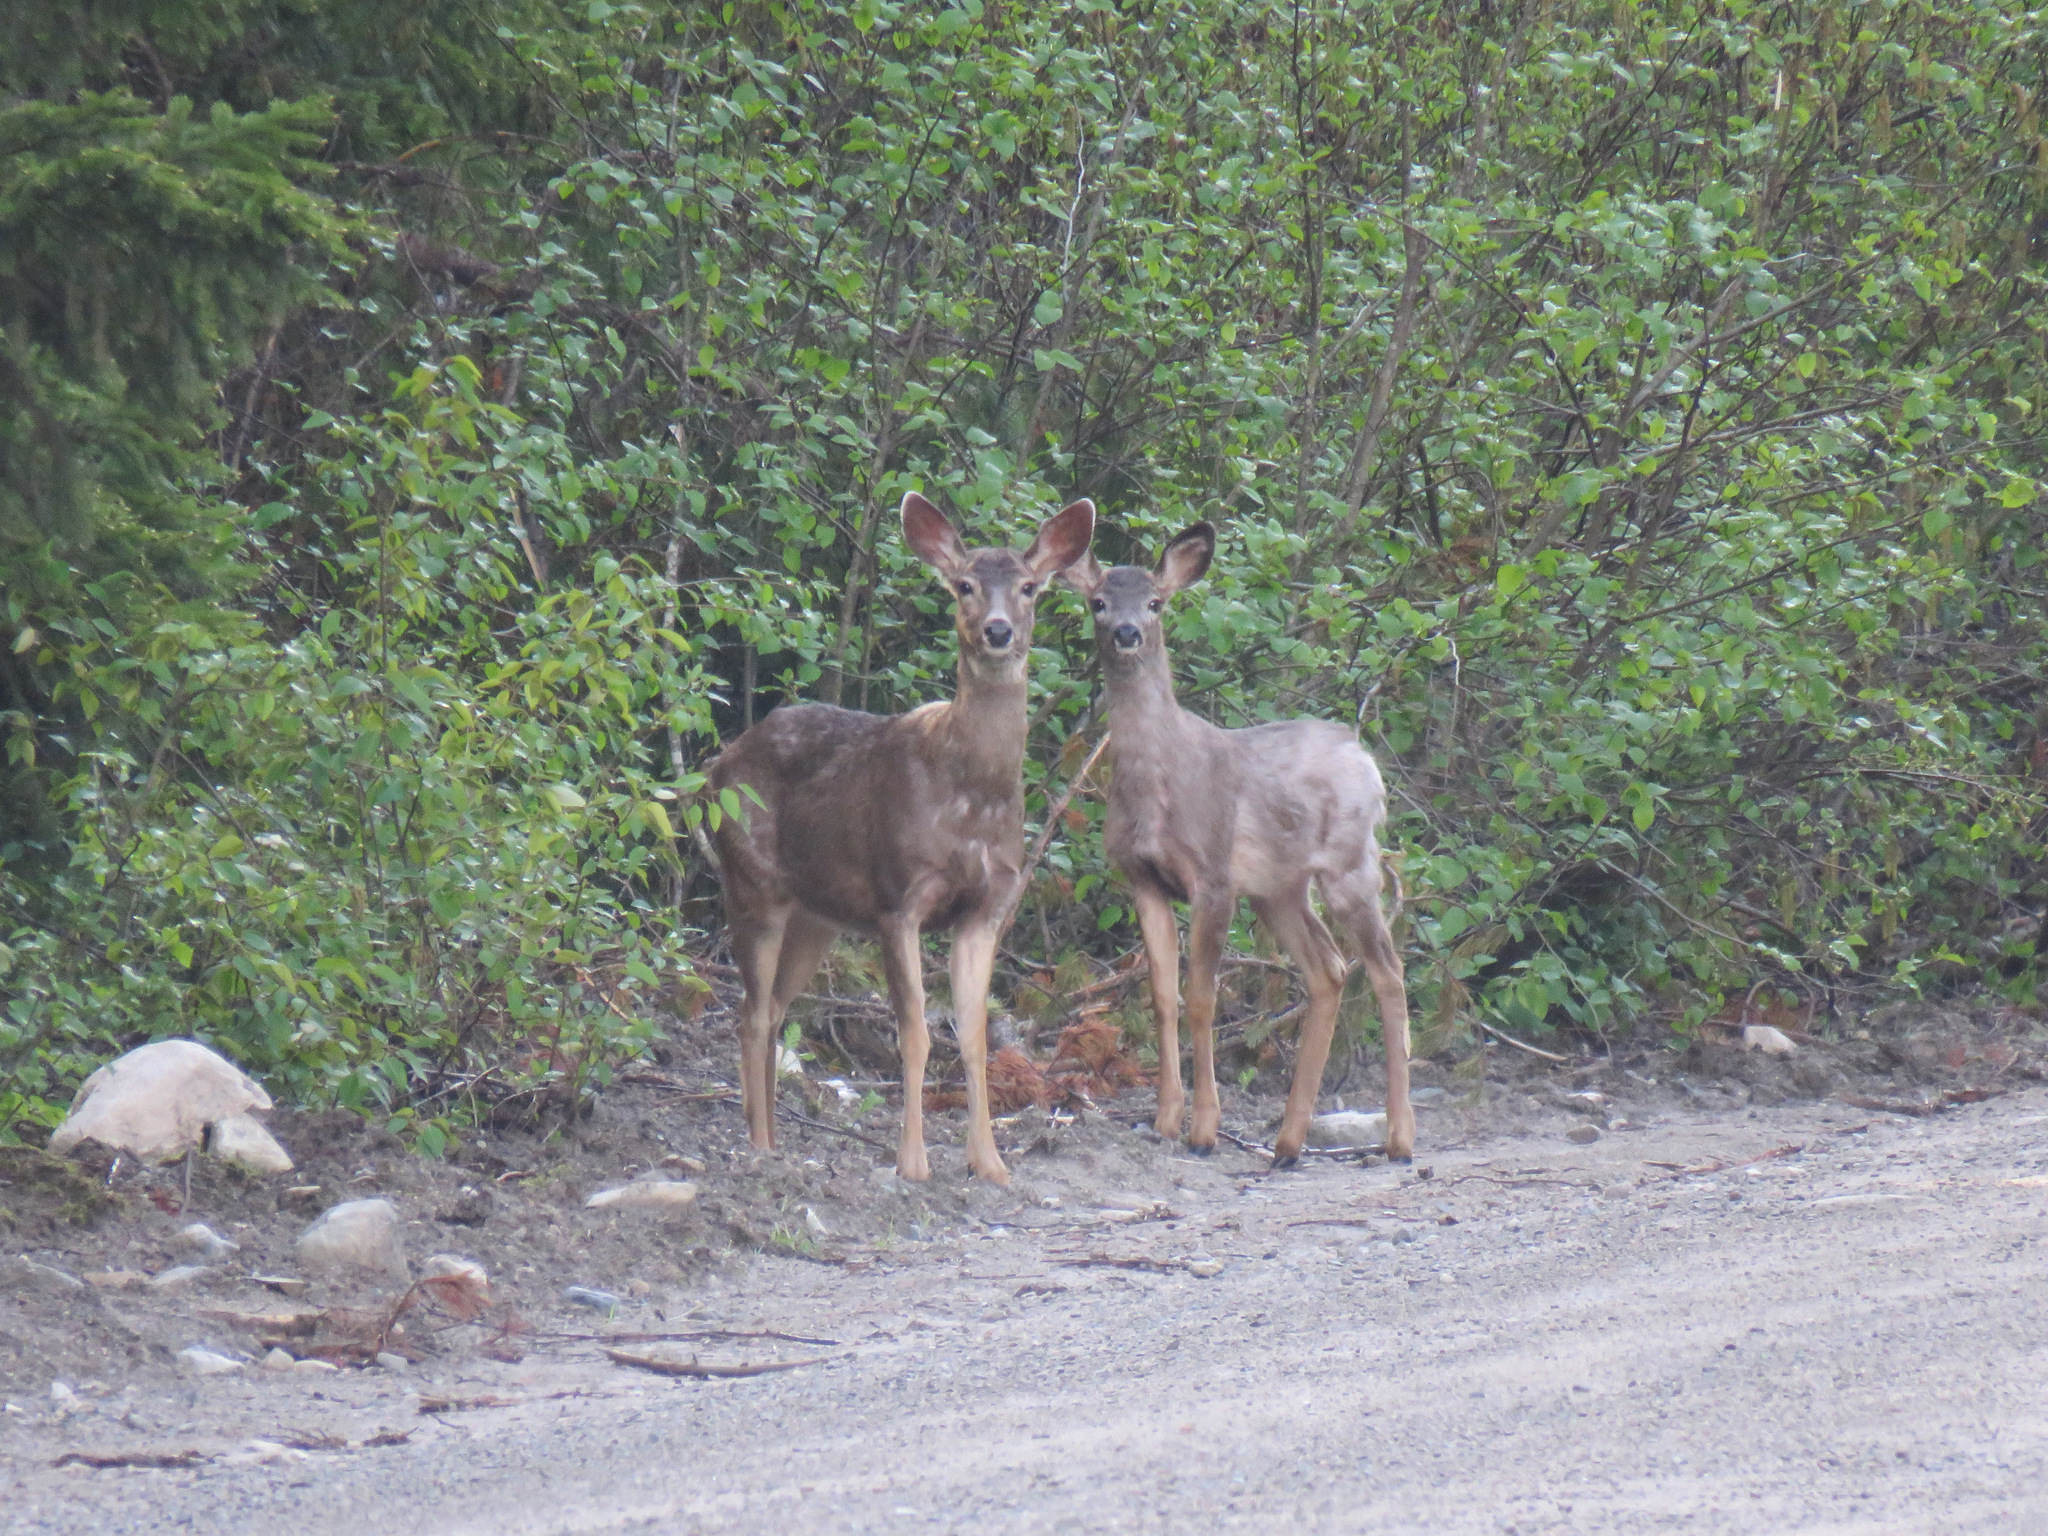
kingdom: Animalia
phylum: Chordata
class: Mammalia
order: Artiodactyla
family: Cervidae
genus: Odocoileus
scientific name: Odocoileus hemionus
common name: Mule deer
